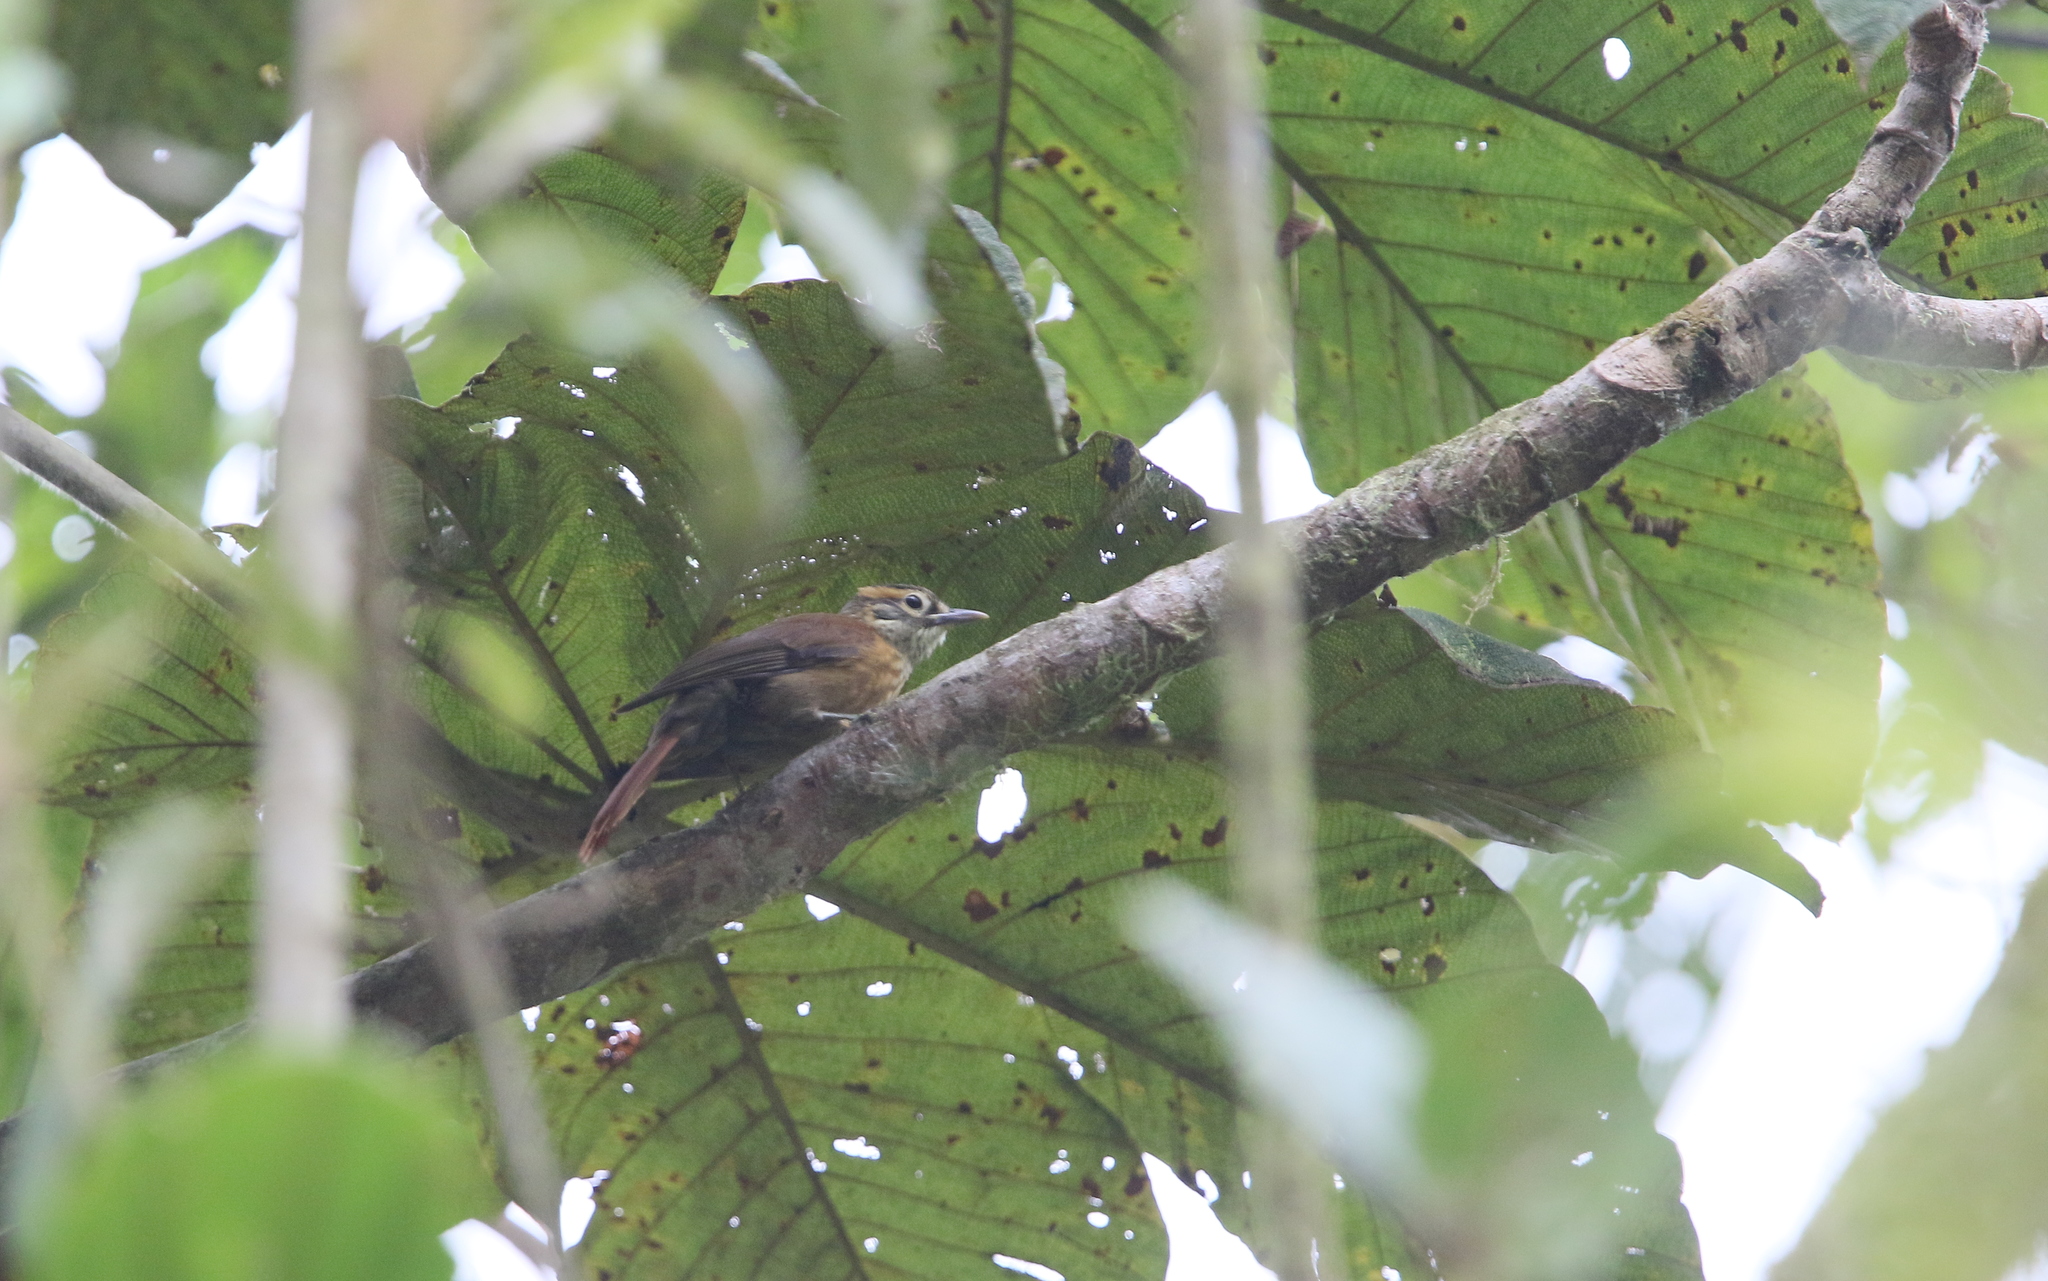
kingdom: Animalia
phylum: Chordata
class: Aves
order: Passeriformes
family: Furnariidae
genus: Anabacerthia
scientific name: Anabacerthia variegaticeps
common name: Scaly-throated foliage-gleaner
